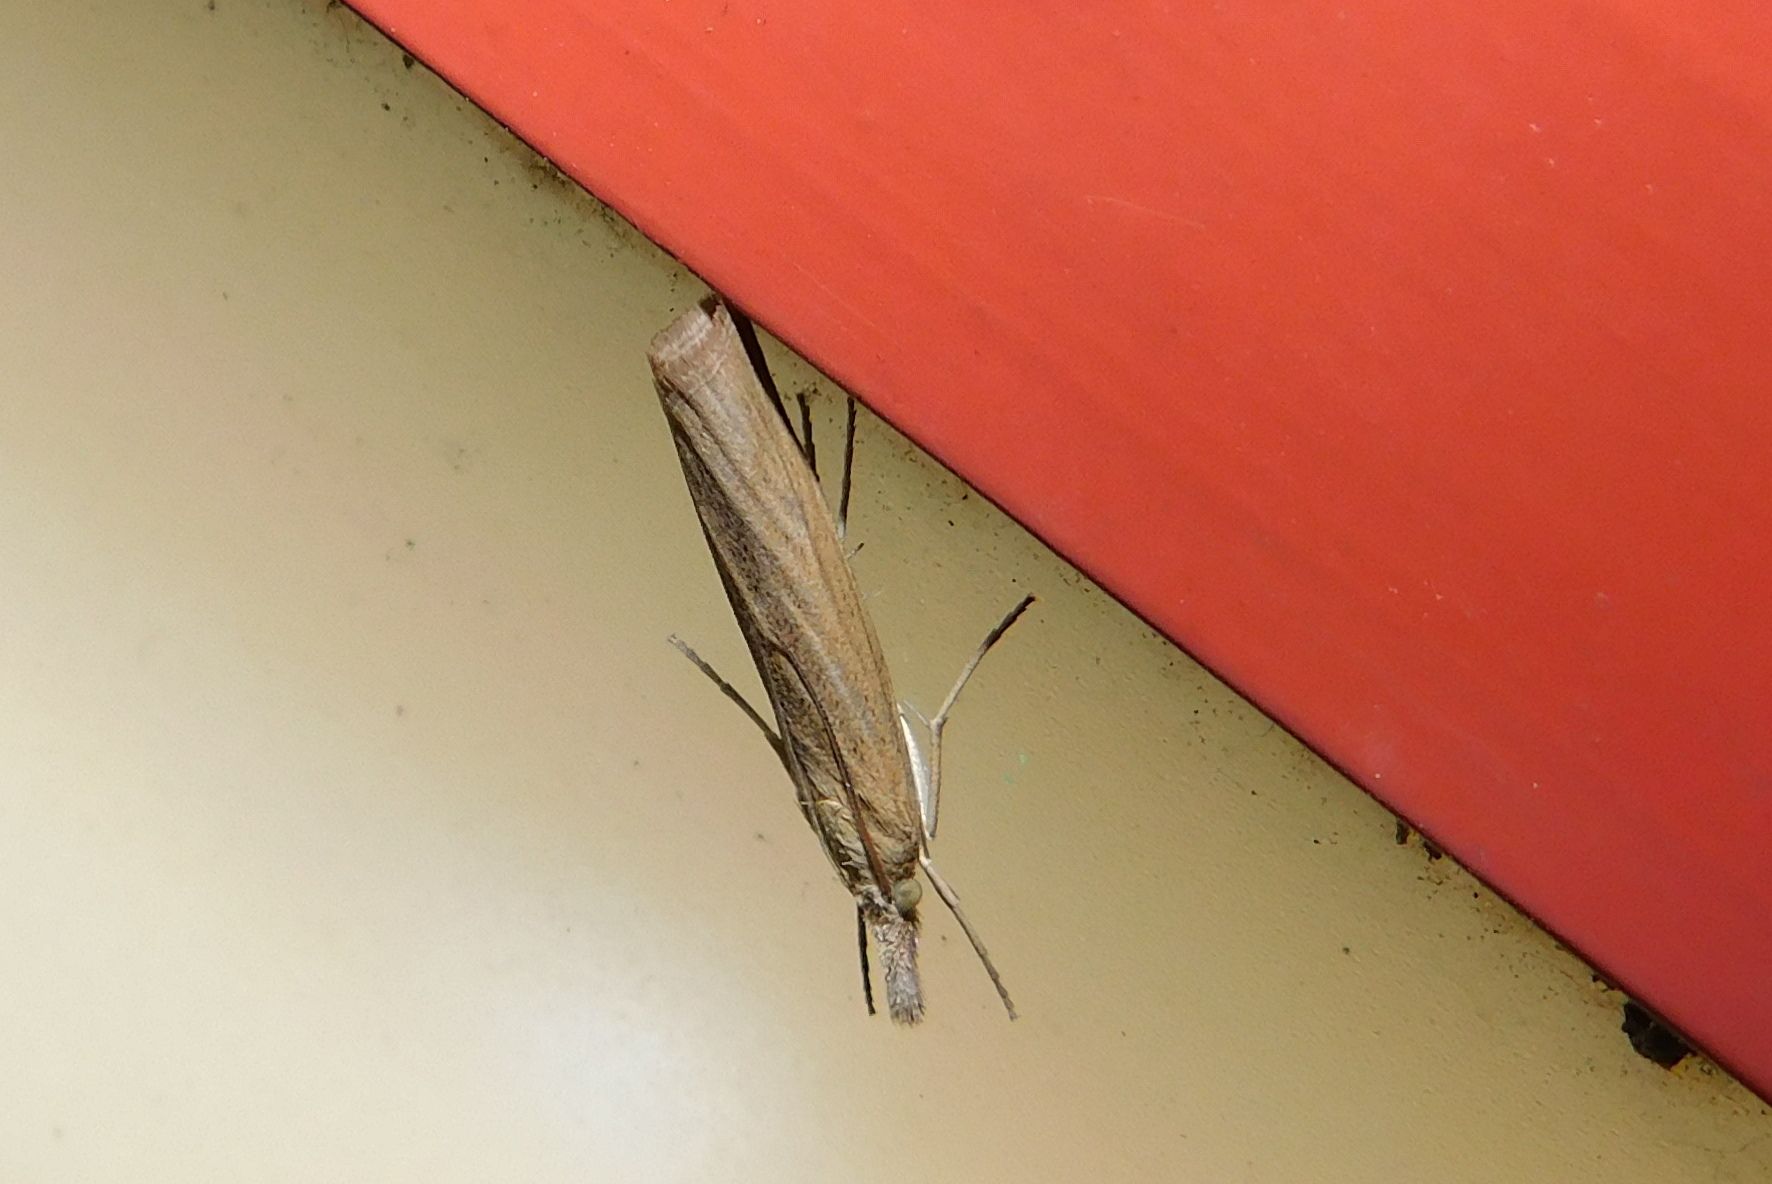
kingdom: Animalia
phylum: Arthropoda
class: Insecta
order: Lepidoptera
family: Crambidae
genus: Pediasia
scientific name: Pediasia luteella
